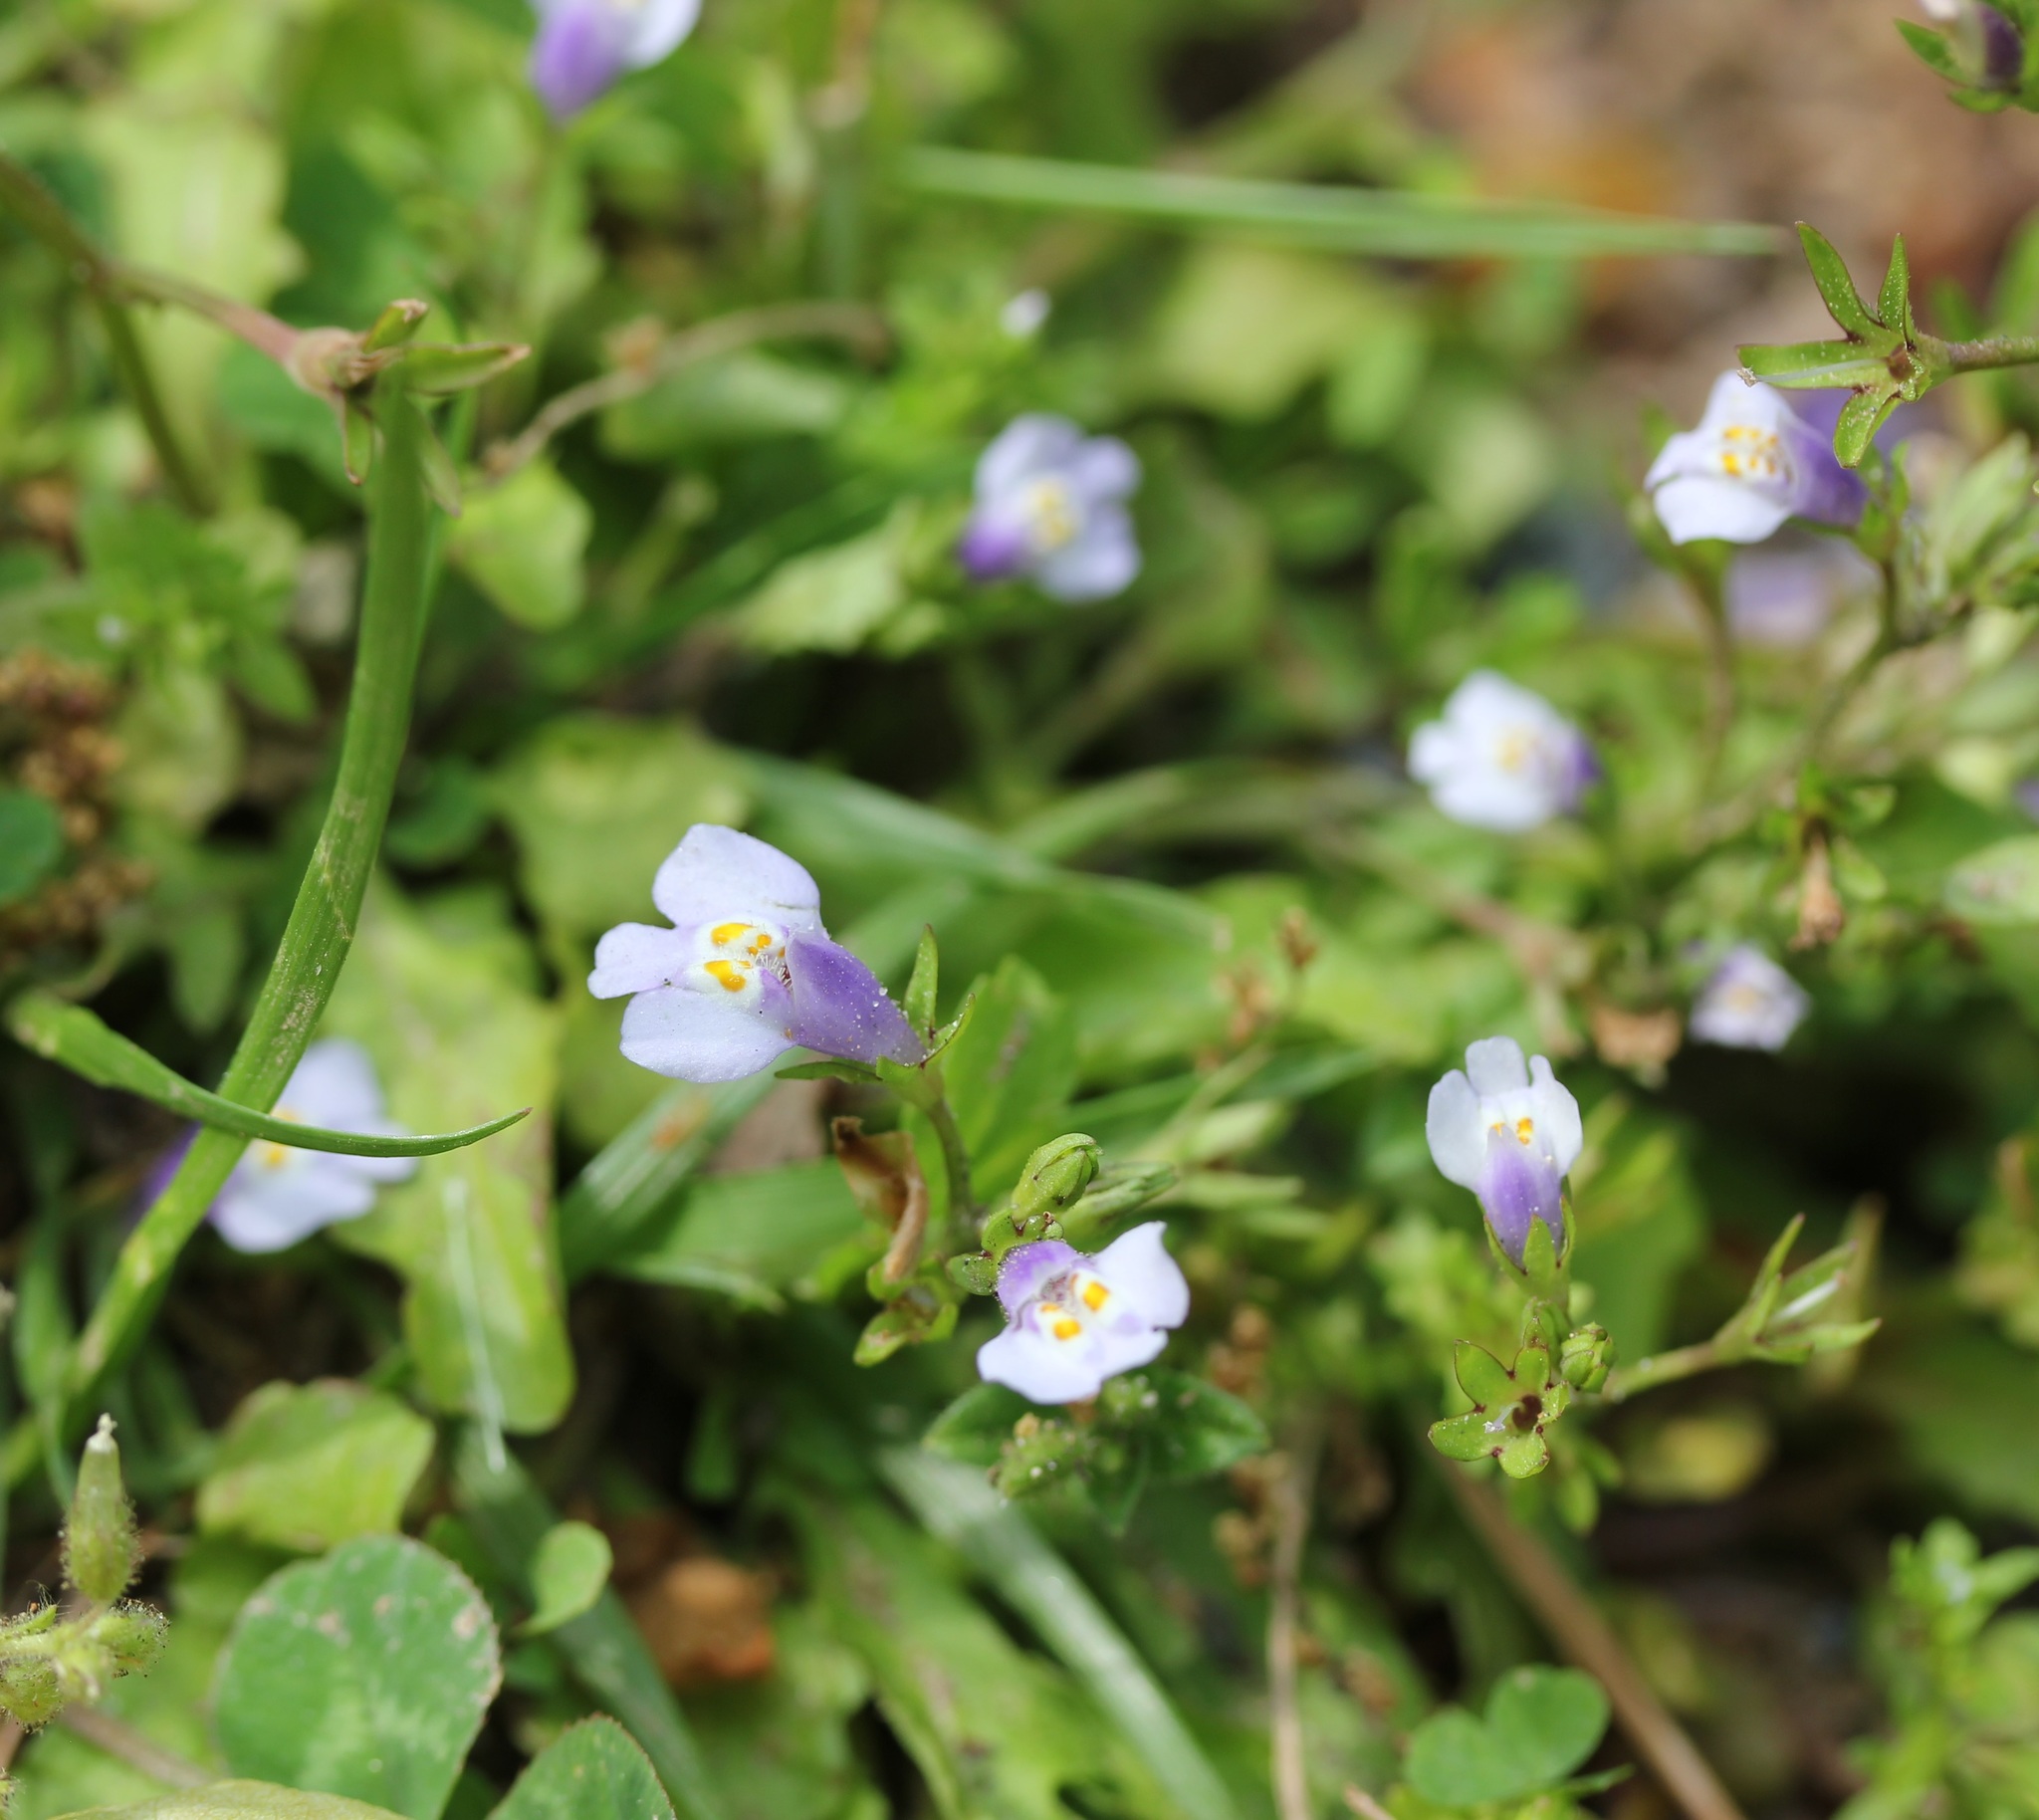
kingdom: Plantae
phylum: Tracheophyta
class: Magnoliopsida
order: Lamiales
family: Mazaceae
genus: Mazus
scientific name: Mazus pumilus
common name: Japanese mazus
